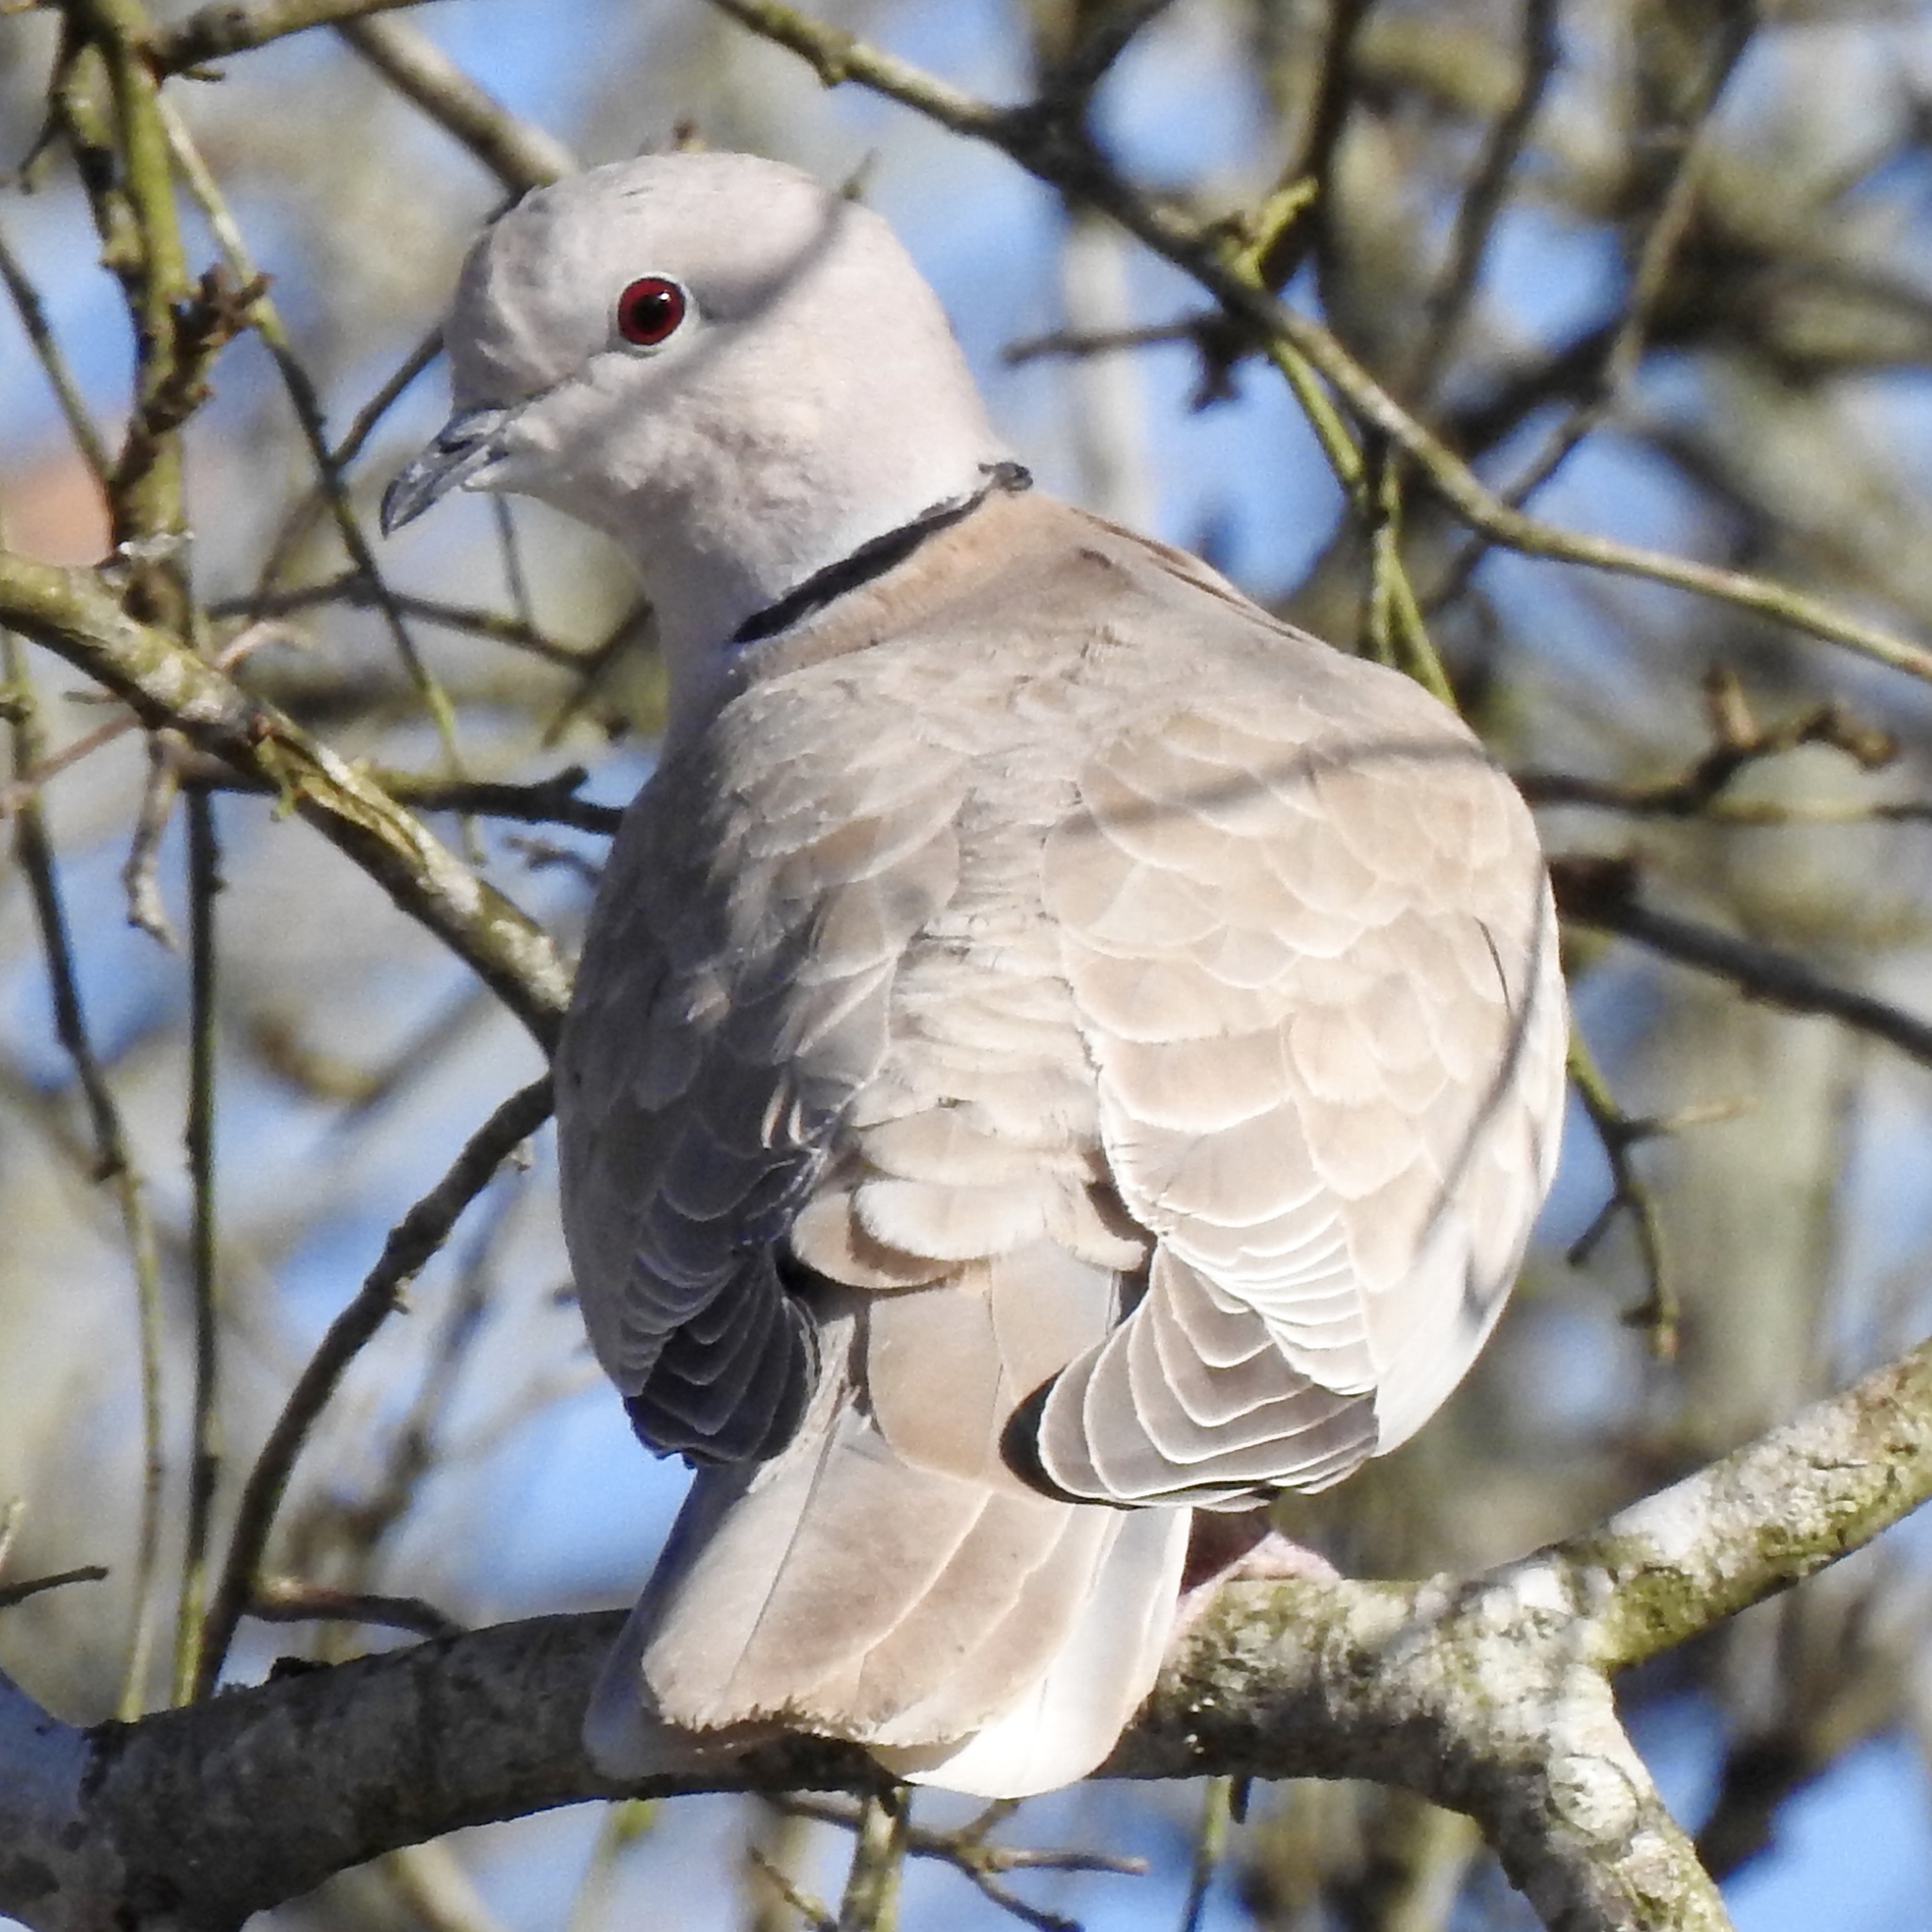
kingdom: Animalia
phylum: Chordata
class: Aves
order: Columbiformes
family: Columbidae
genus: Streptopelia
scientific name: Streptopelia decaocto
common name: Eurasian collared dove
